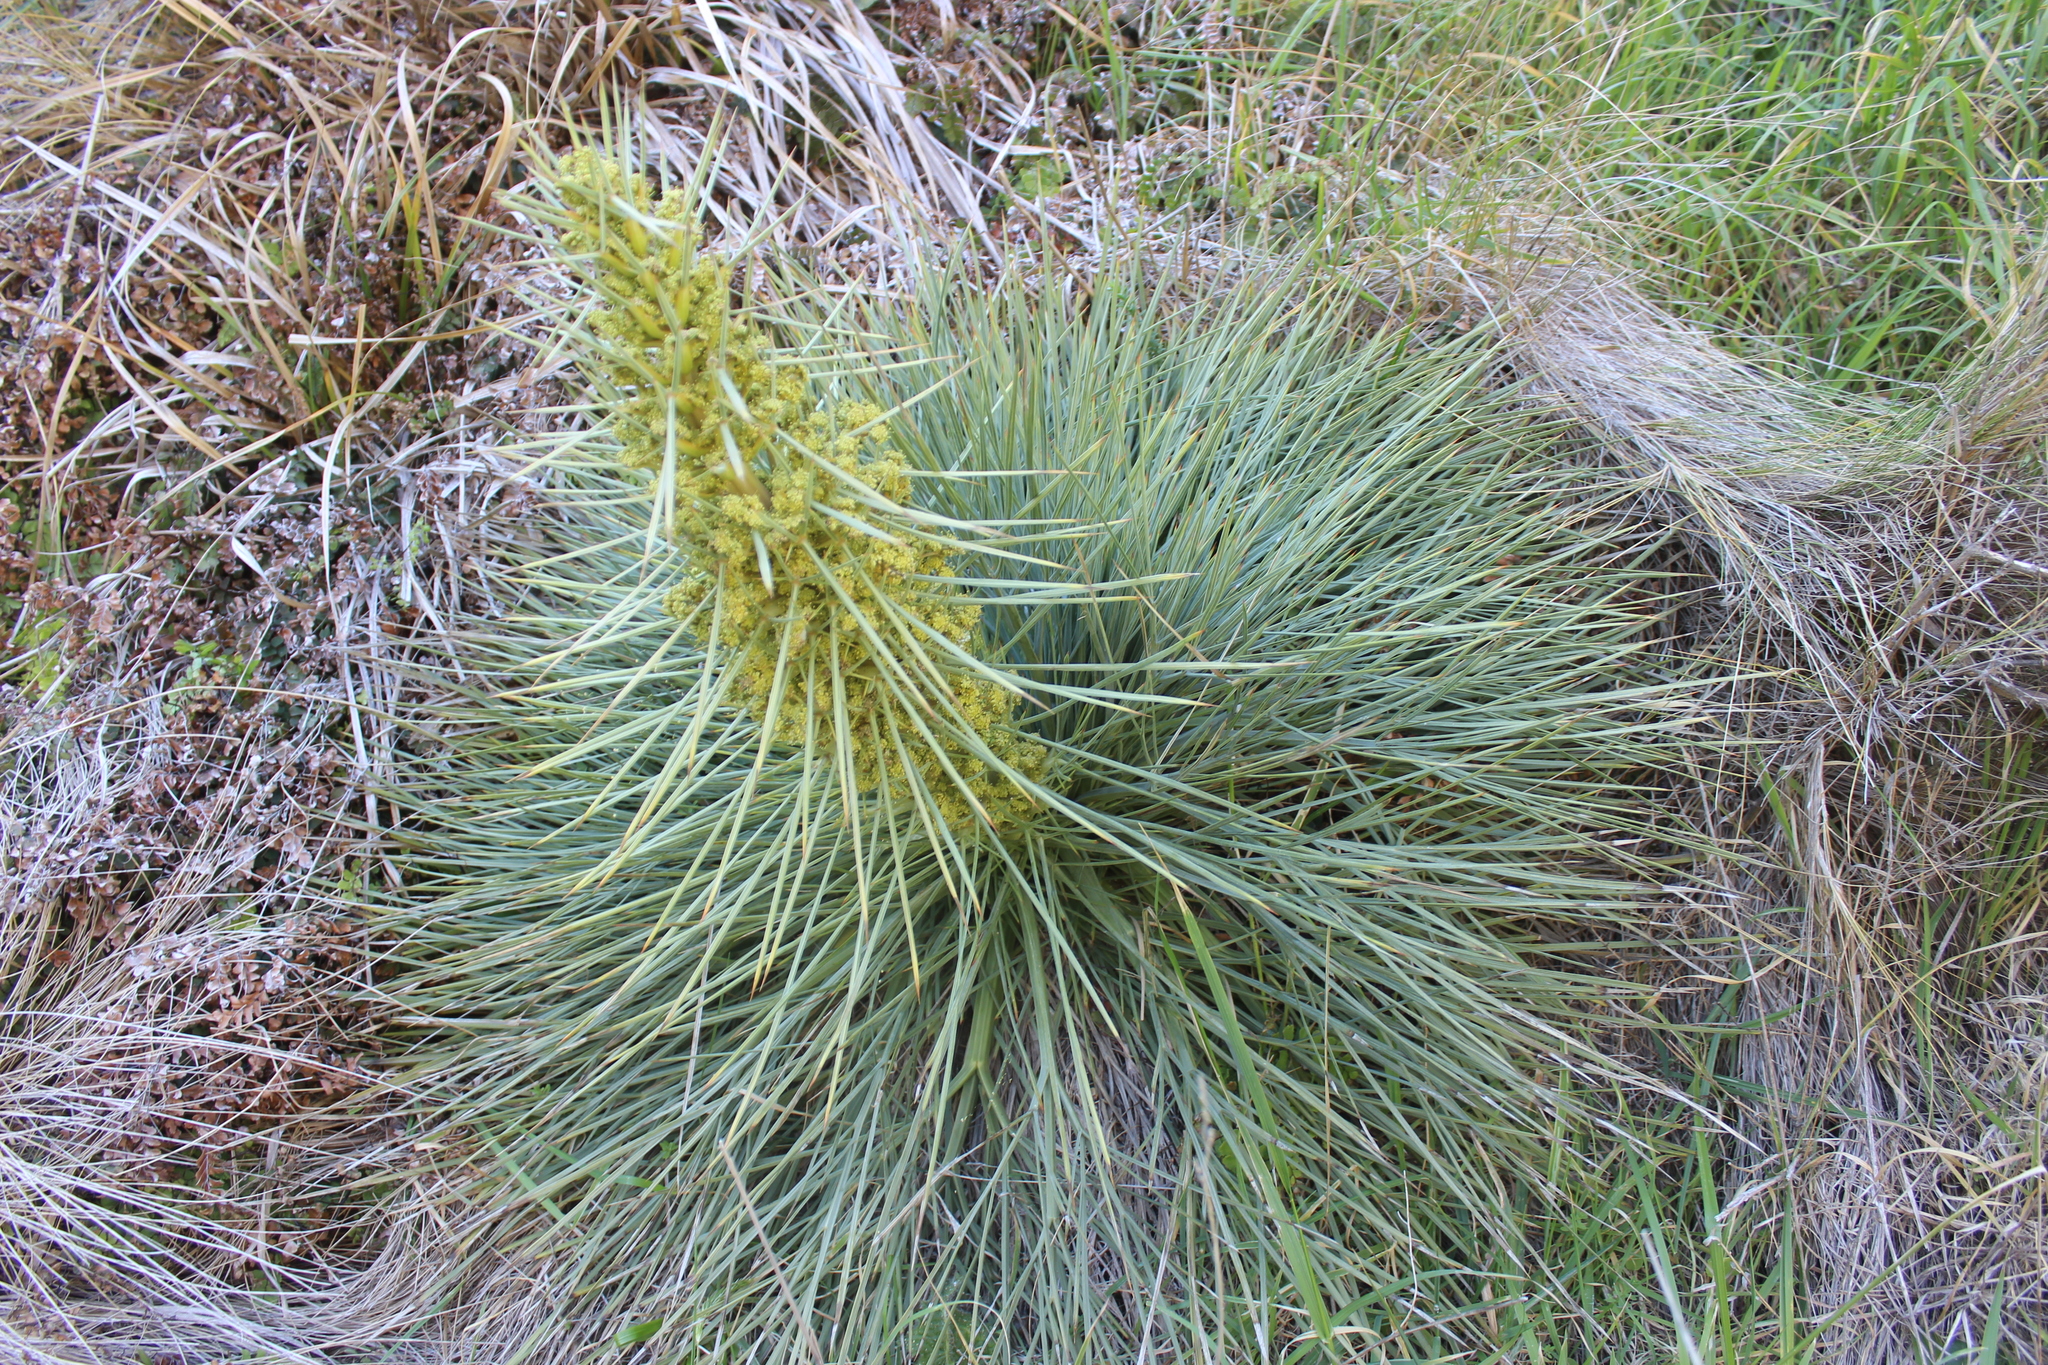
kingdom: Plantae
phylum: Tracheophyta
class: Magnoliopsida
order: Apiales
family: Apiaceae
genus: Aciphylla
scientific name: Aciphylla squarrosa
